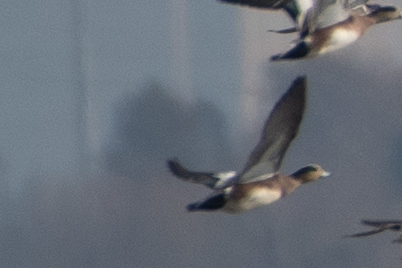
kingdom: Animalia
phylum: Chordata
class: Aves
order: Anseriformes
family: Anatidae
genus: Mareca
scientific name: Mareca americana
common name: American wigeon
